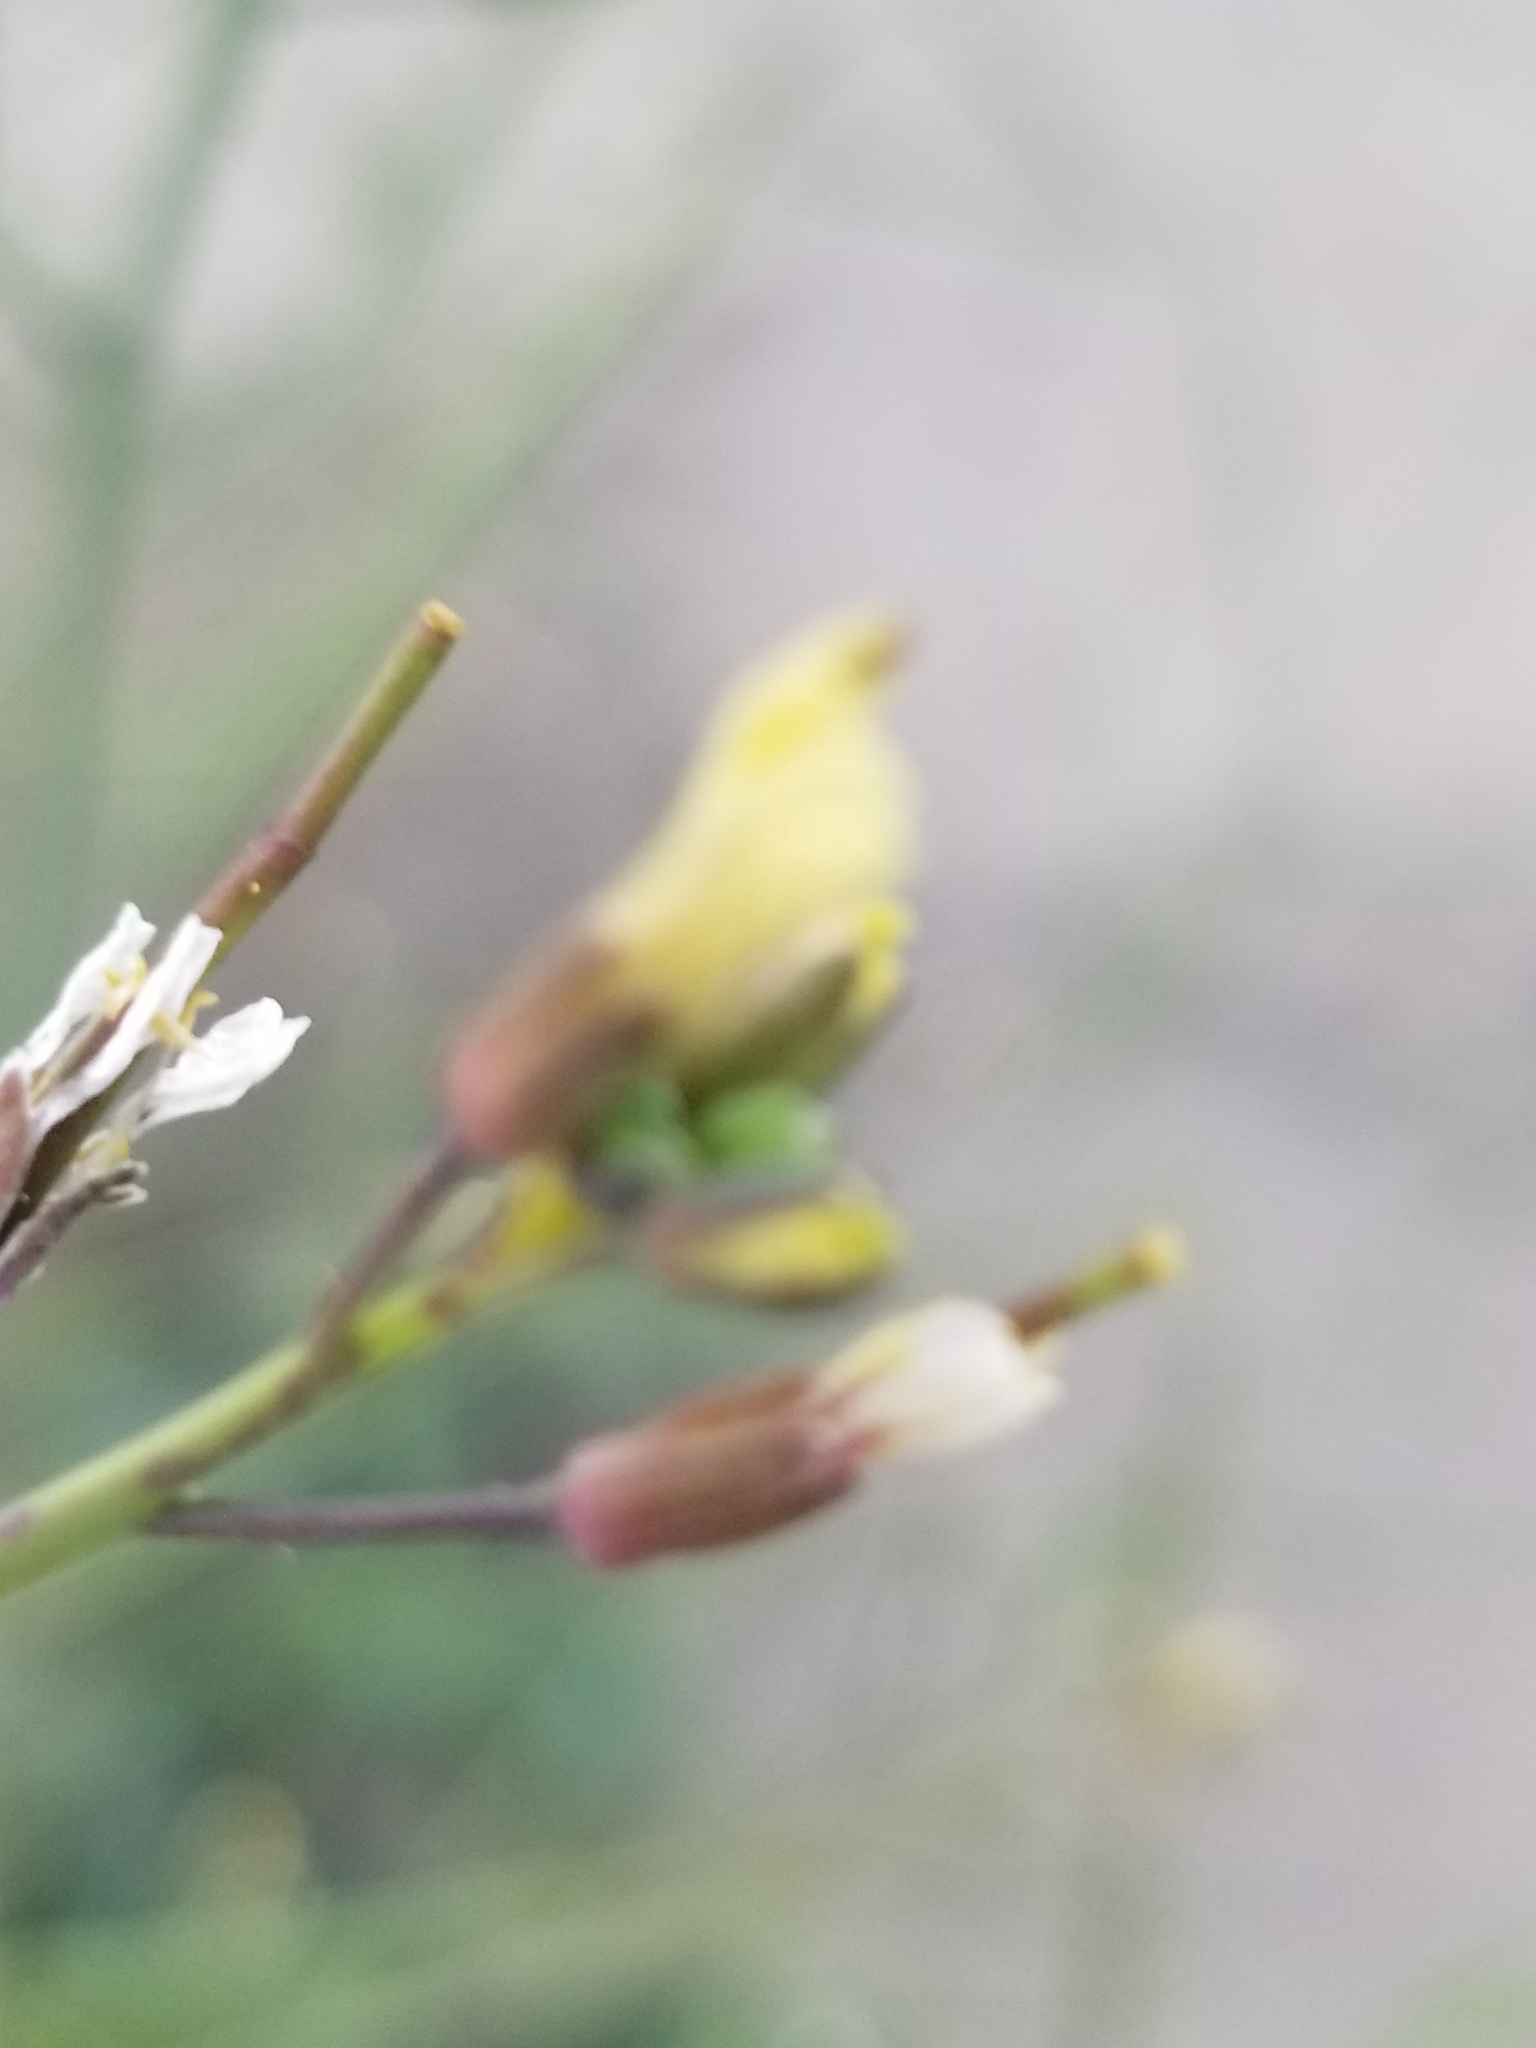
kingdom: Plantae
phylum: Tracheophyta
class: Magnoliopsida
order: Brassicales
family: Brassicaceae
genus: Brassica
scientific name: Brassica tournefortii
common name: Pale cabbage
